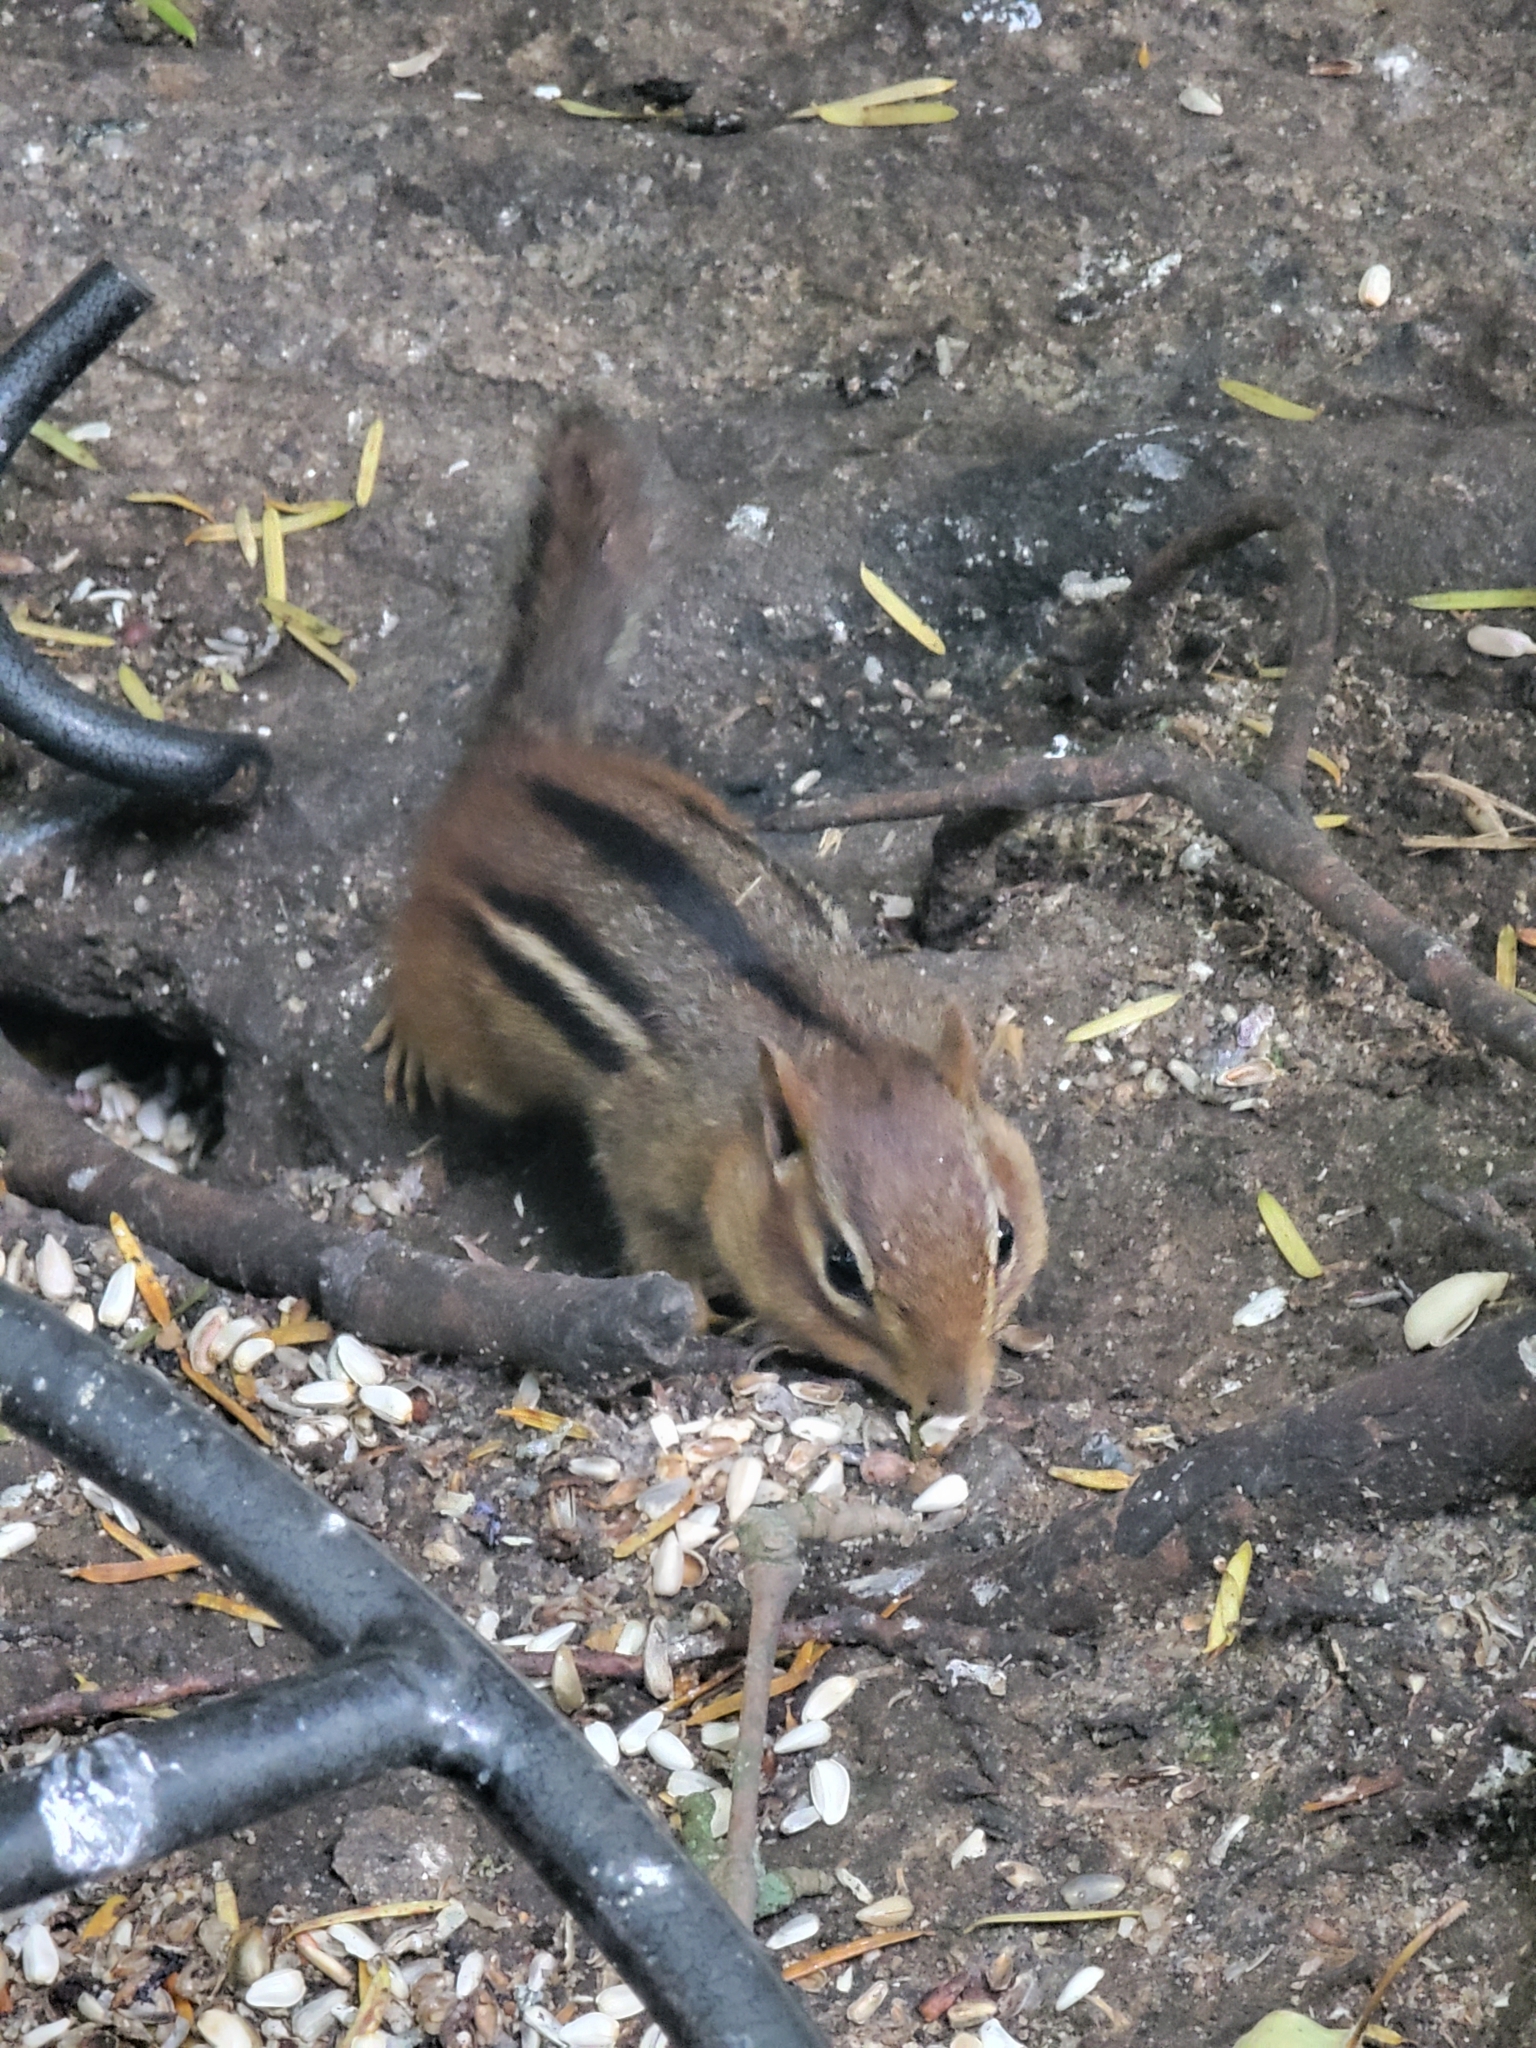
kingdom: Animalia
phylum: Chordata
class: Mammalia
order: Rodentia
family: Sciuridae
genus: Tamias
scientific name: Tamias striatus
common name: Eastern chipmunk
